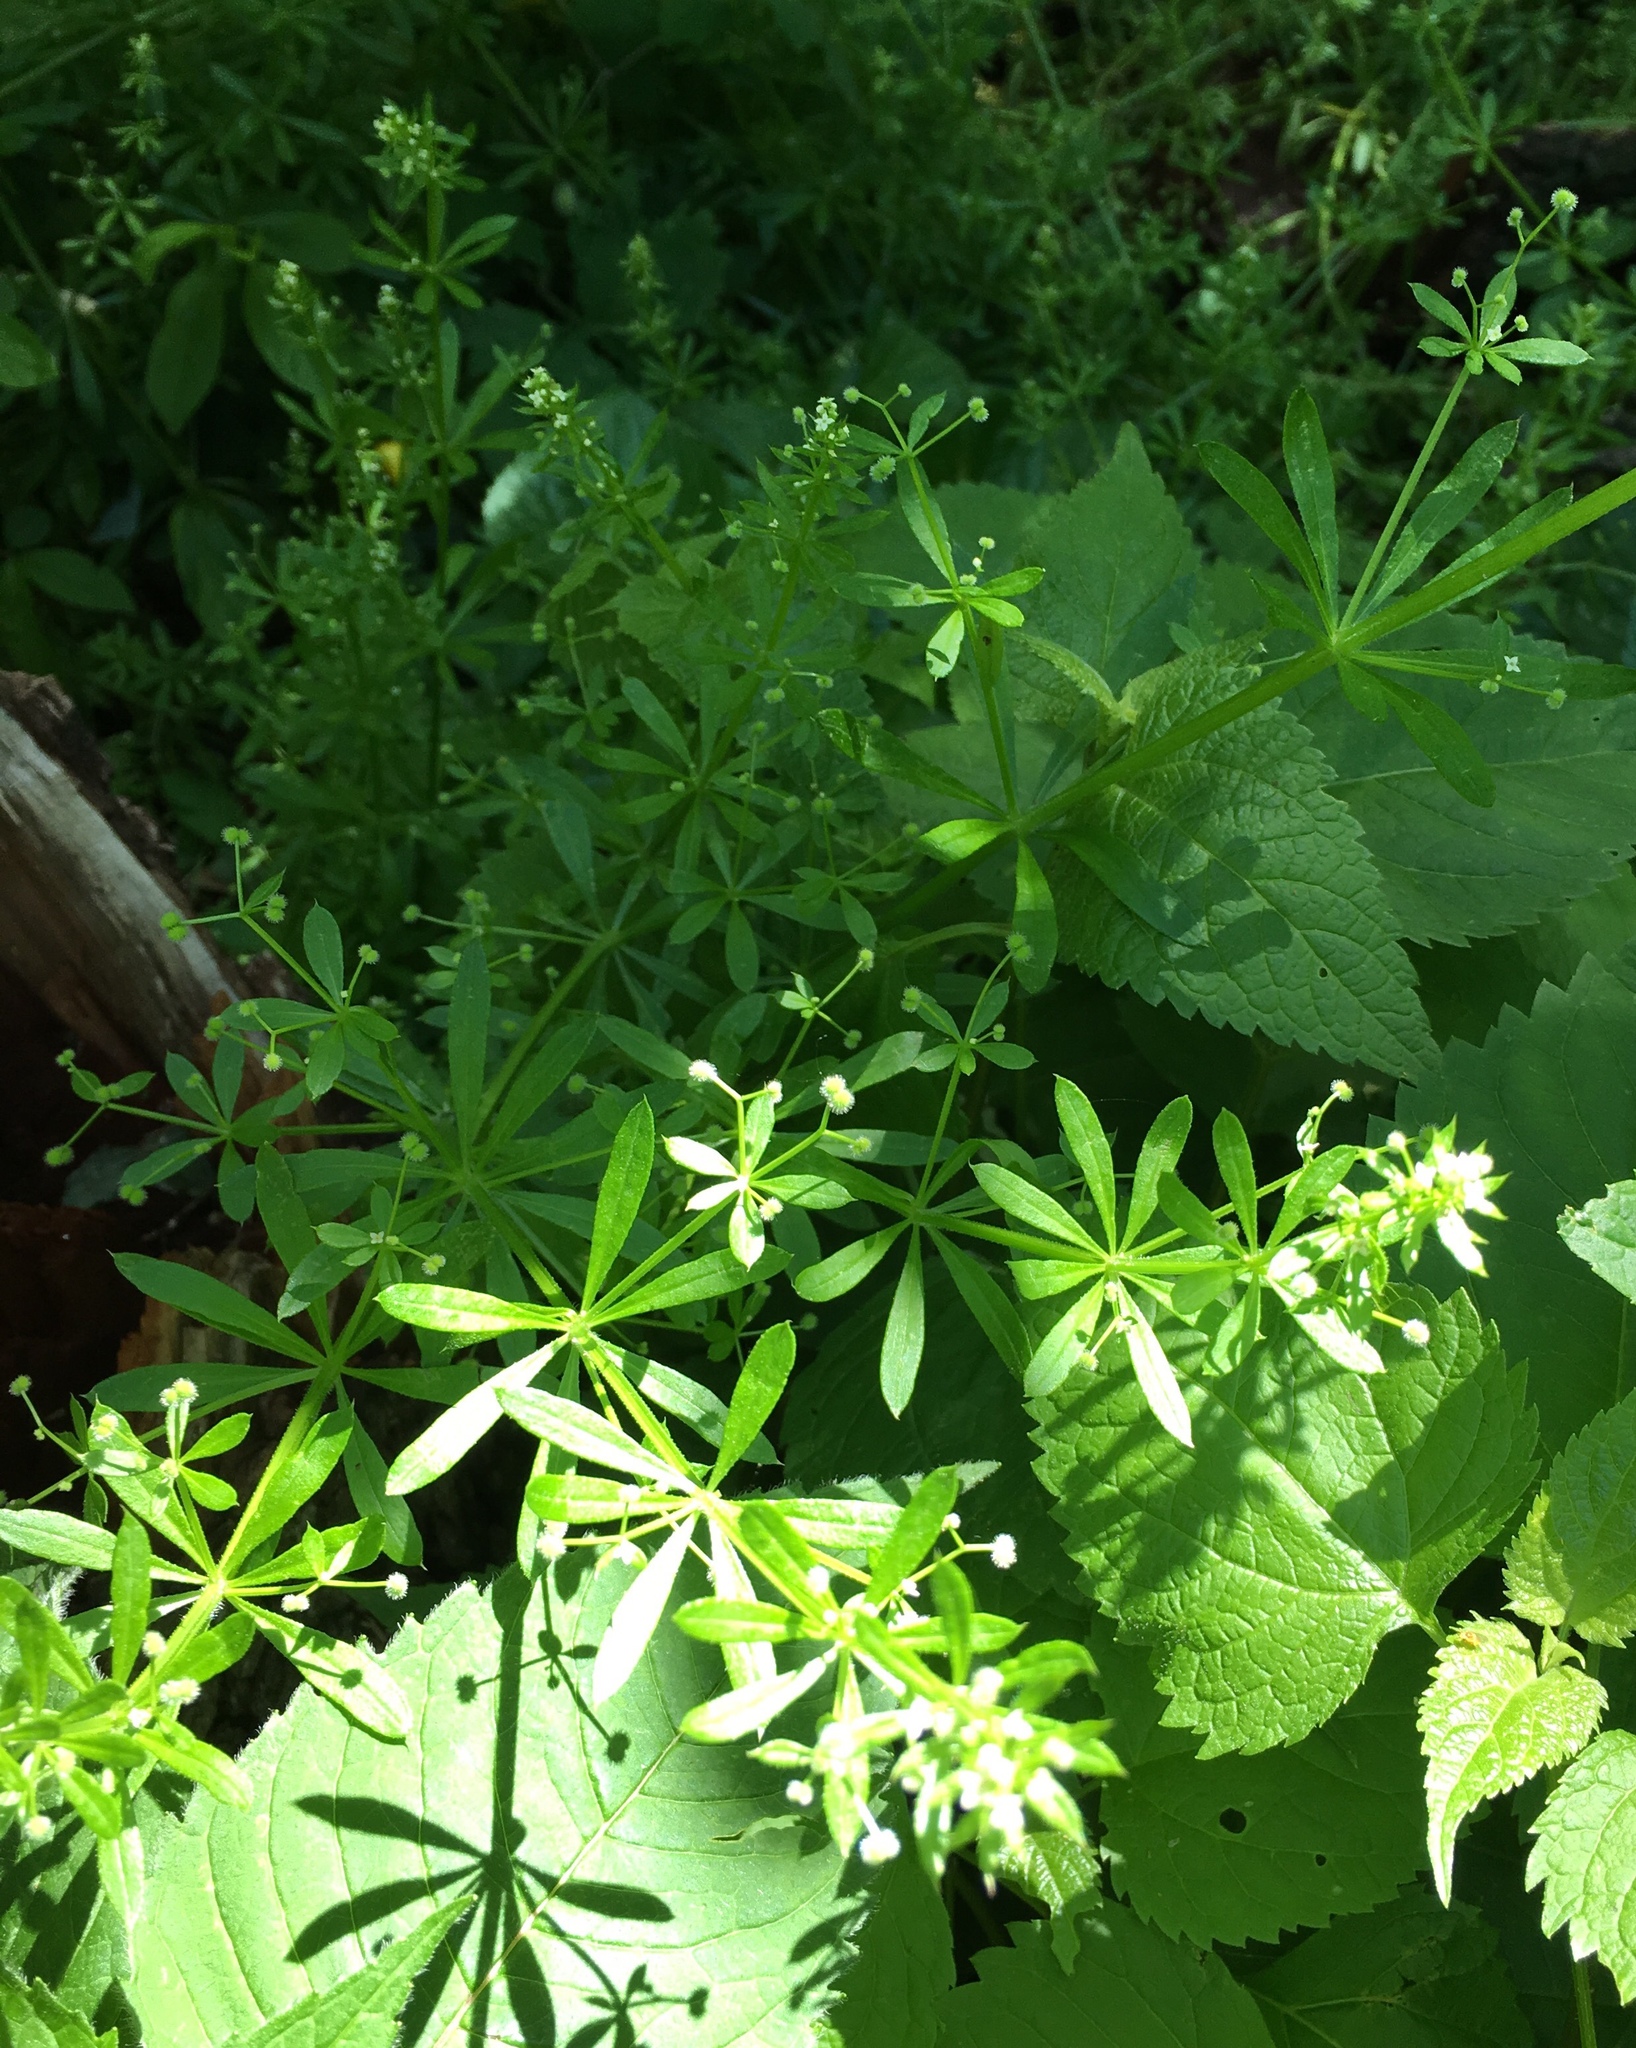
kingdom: Plantae
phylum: Tracheophyta
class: Magnoliopsida
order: Gentianales
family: Rubiaceae
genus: Galium
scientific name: Galium aparine
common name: Cleavers
